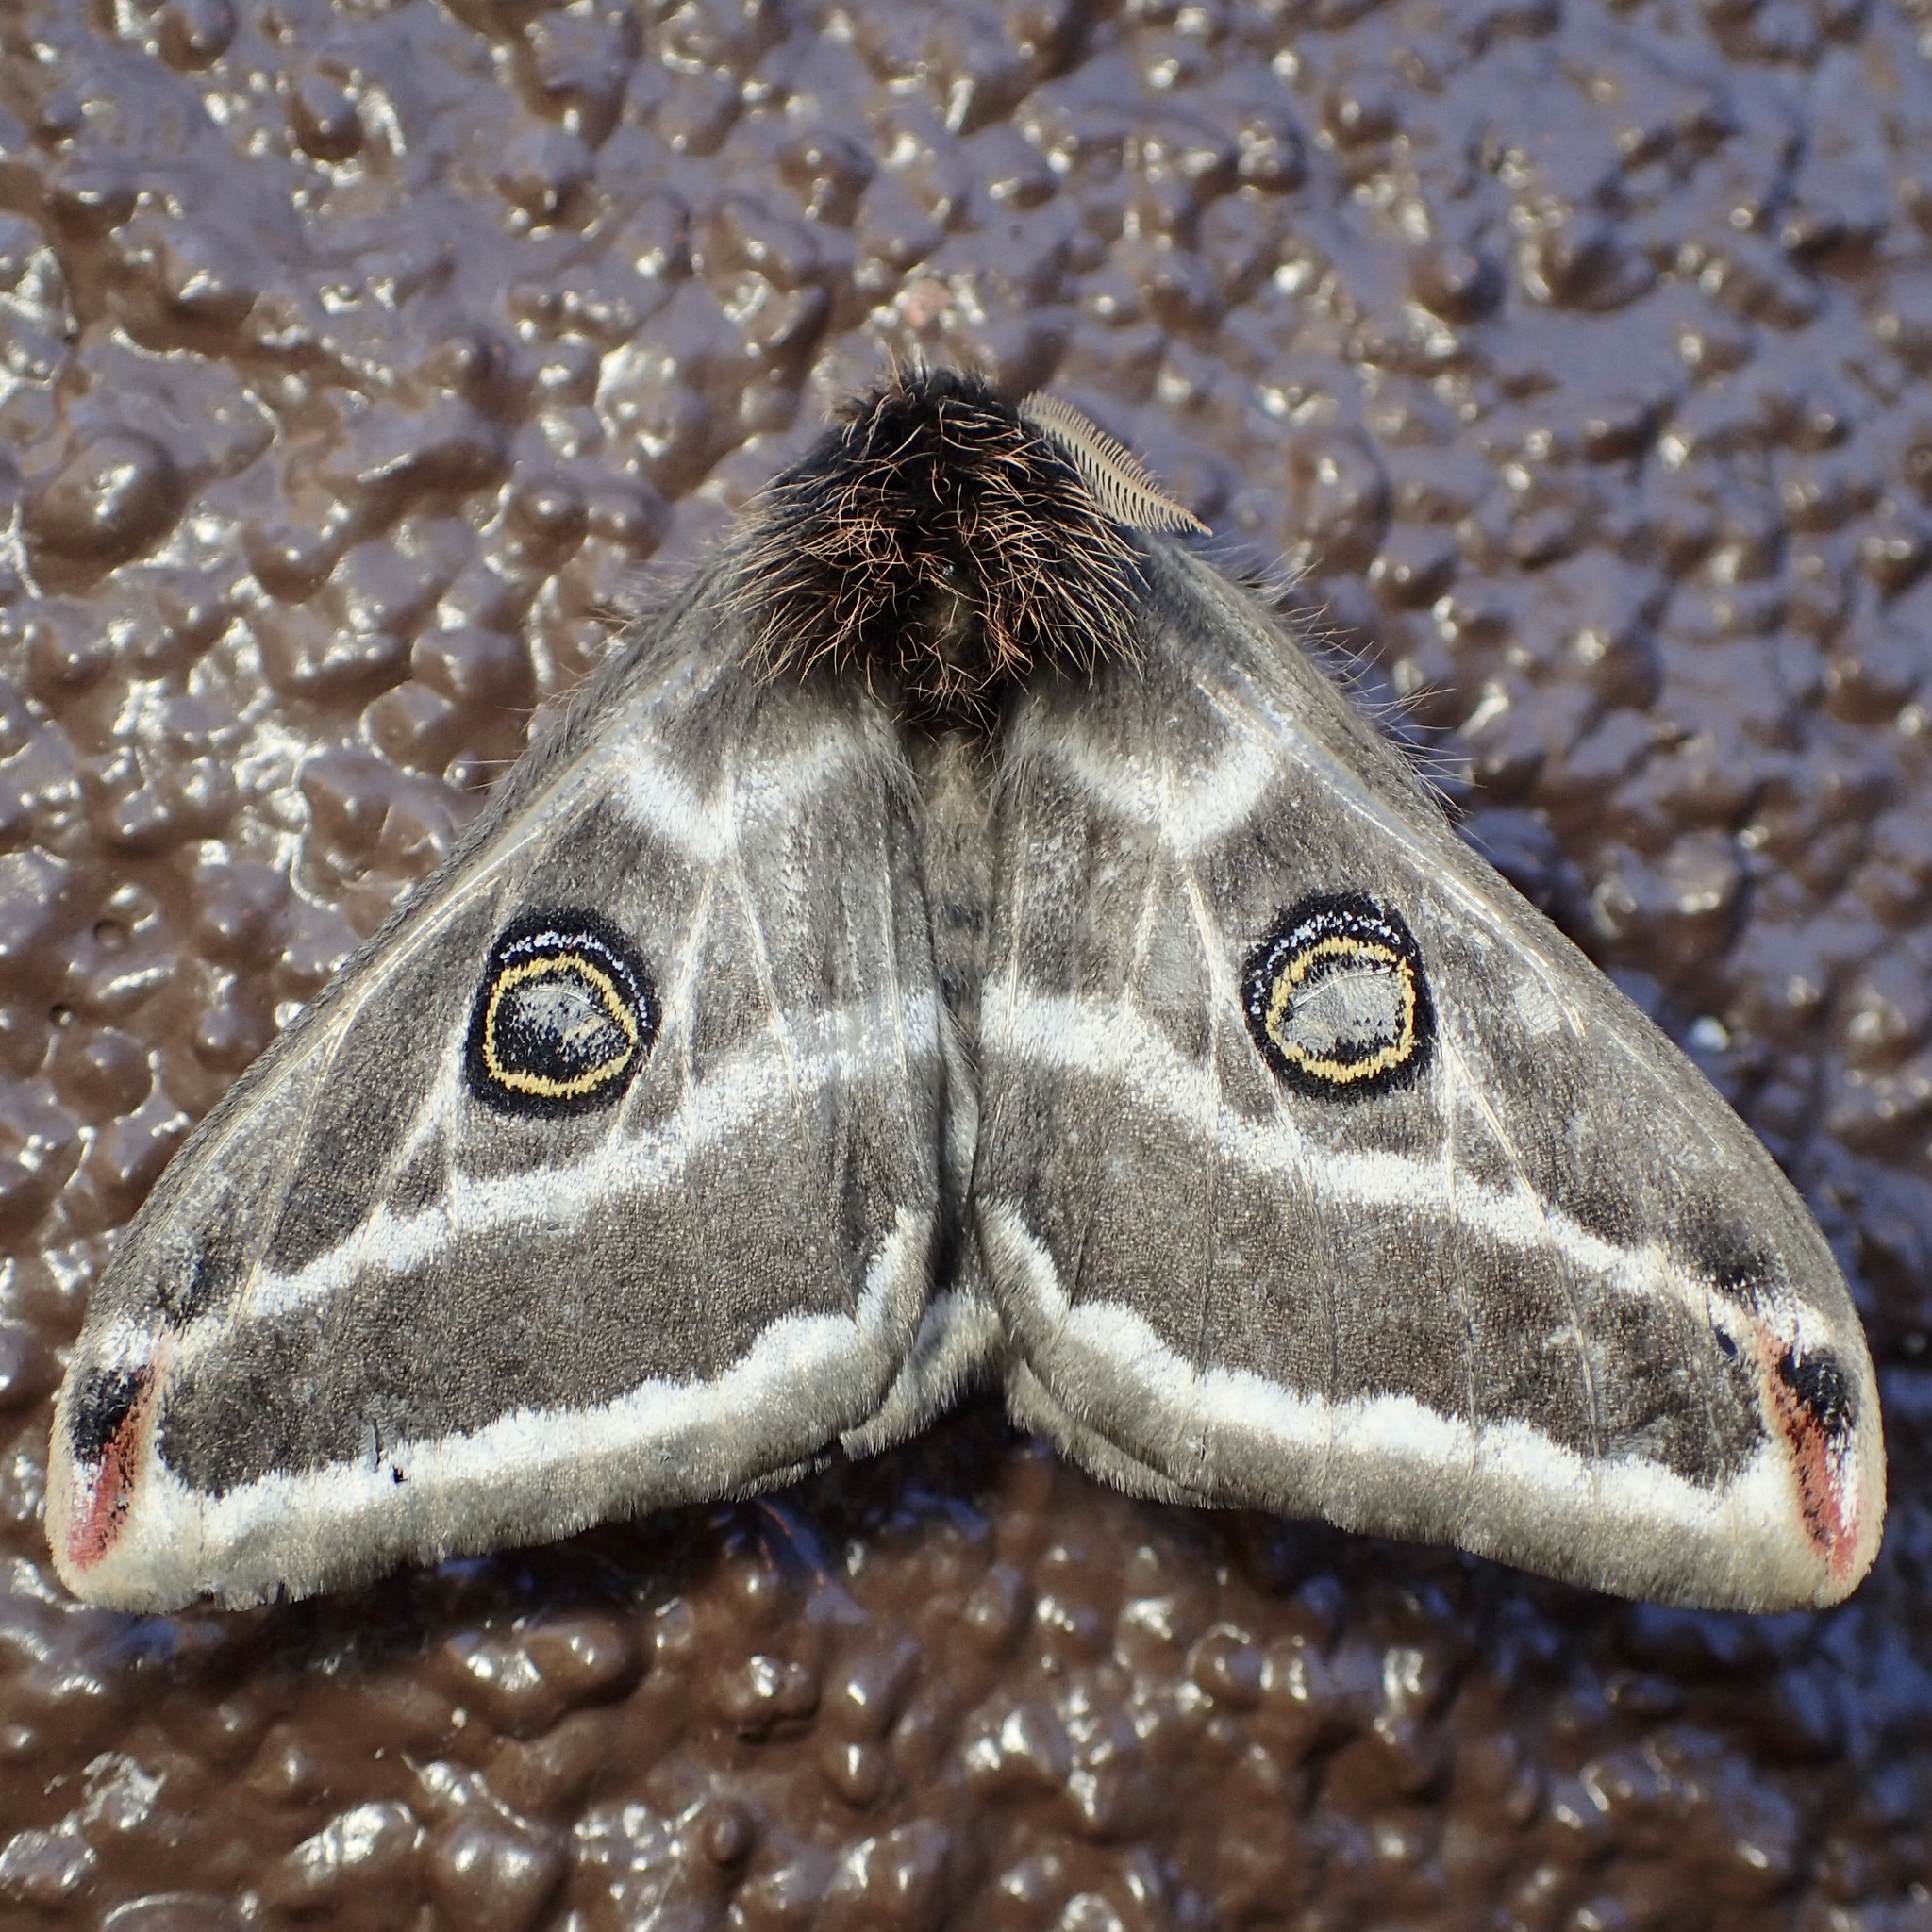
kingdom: Animalia
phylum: Arthropoda
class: Insecta
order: Lepidoptera
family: Saturniidae
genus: Saturnia
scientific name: Saturnia anona
